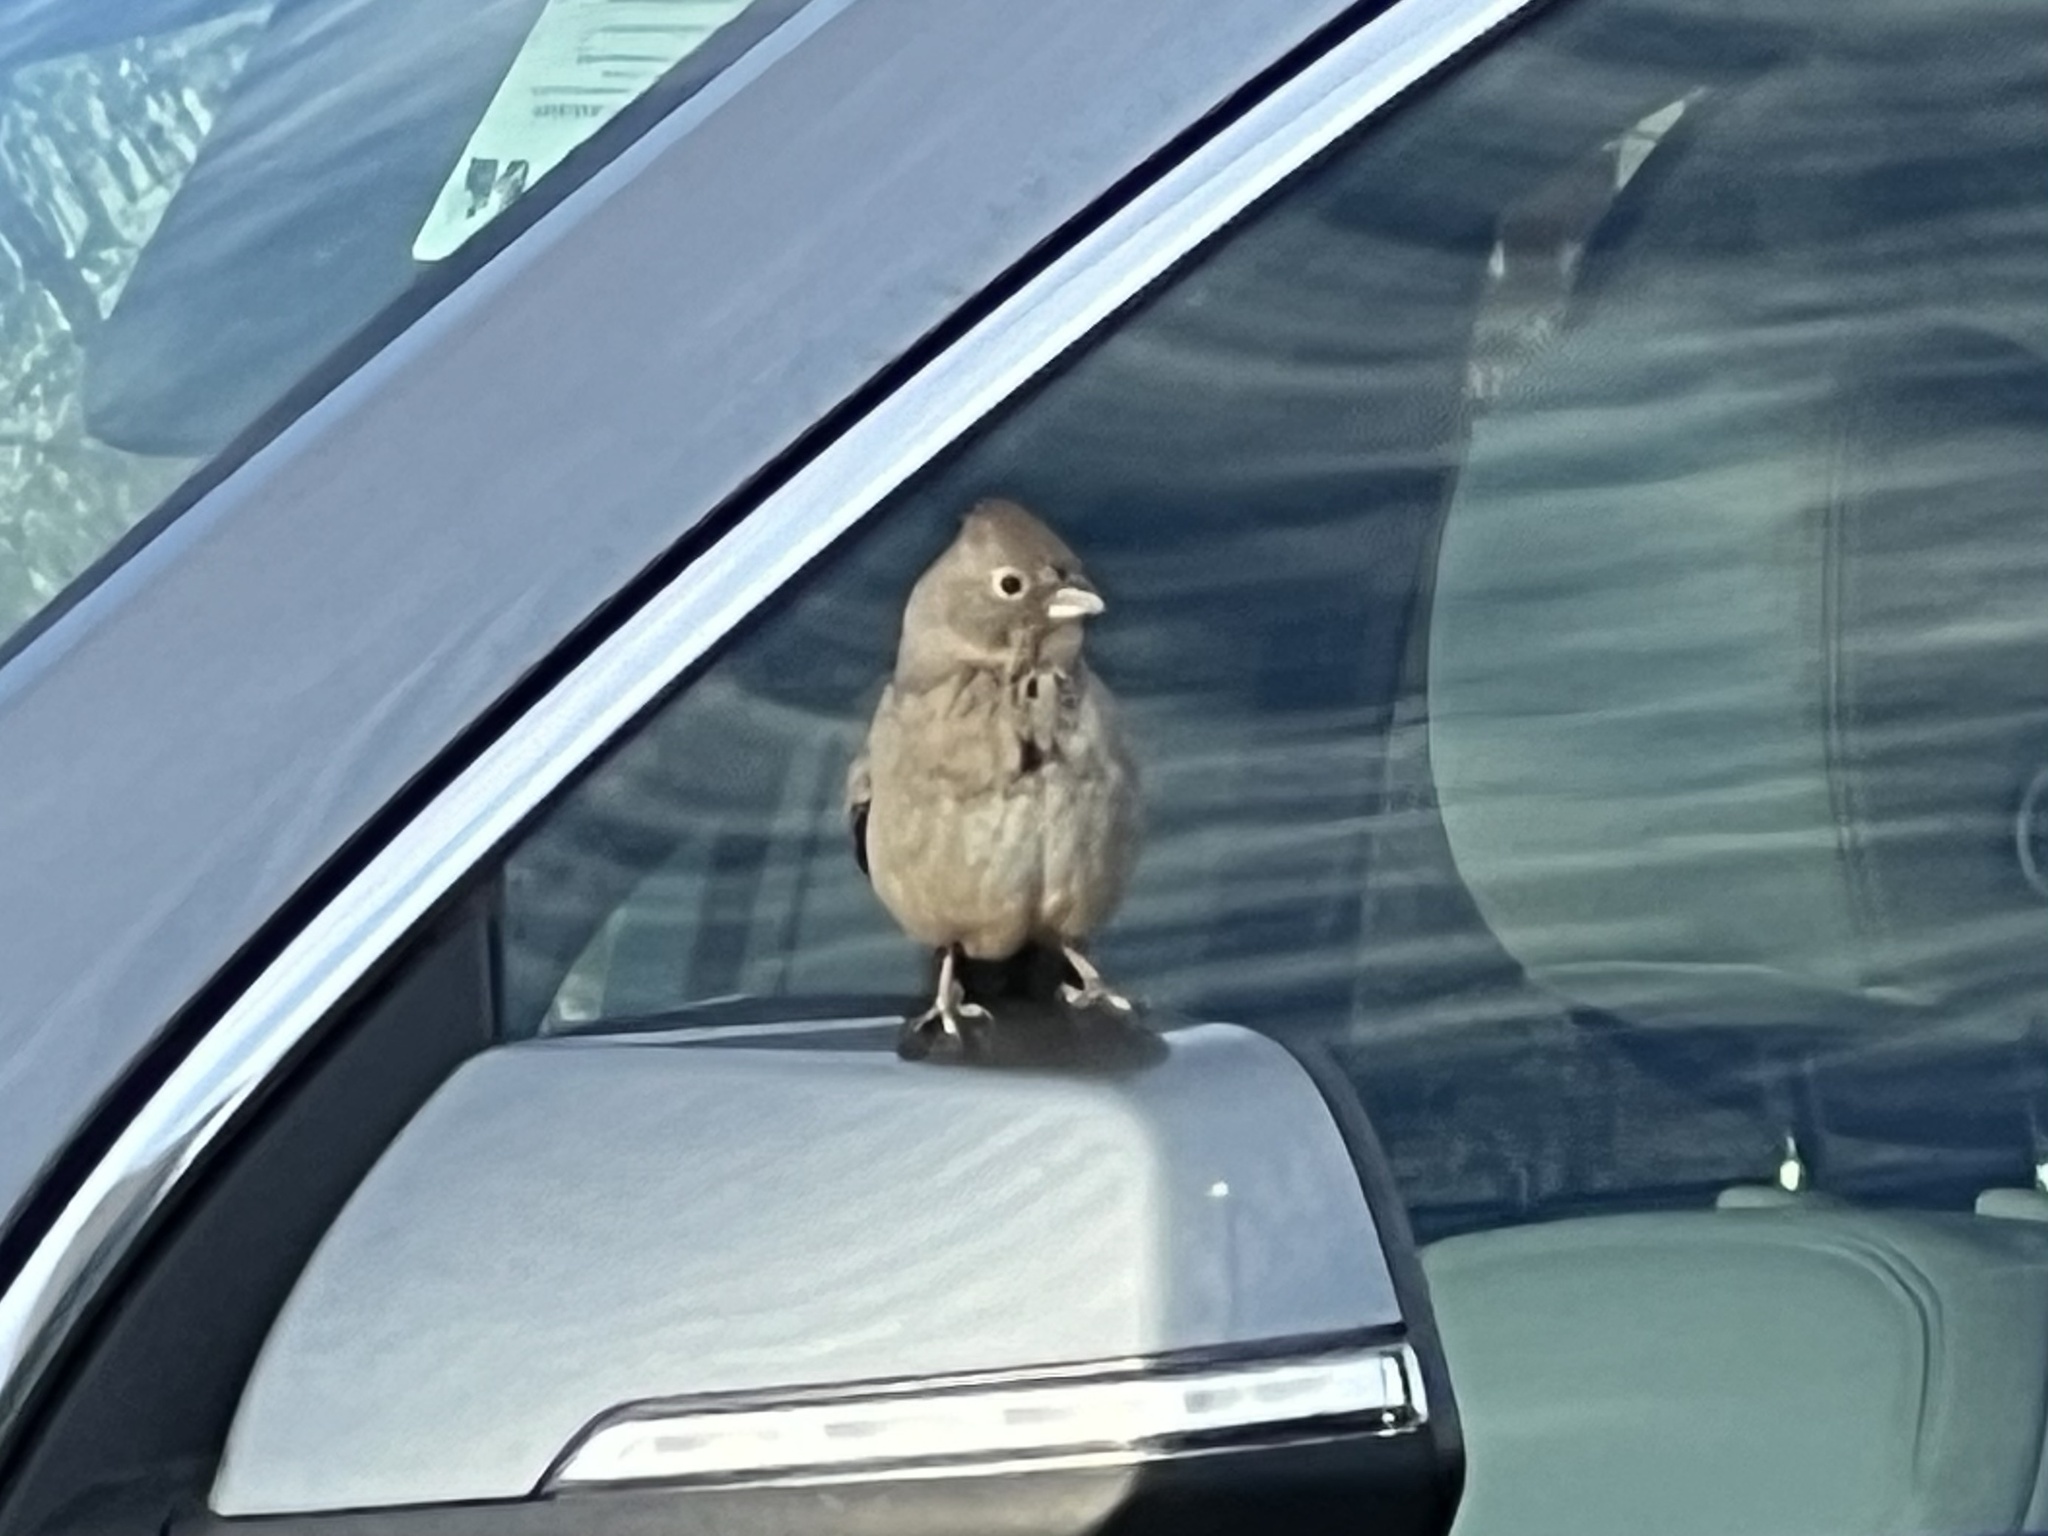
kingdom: Animalia
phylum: Chordata
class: Aves
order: Passeriformes
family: Passerellidae
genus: Melozone
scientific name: Melozone fusca
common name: Canyon towhee
